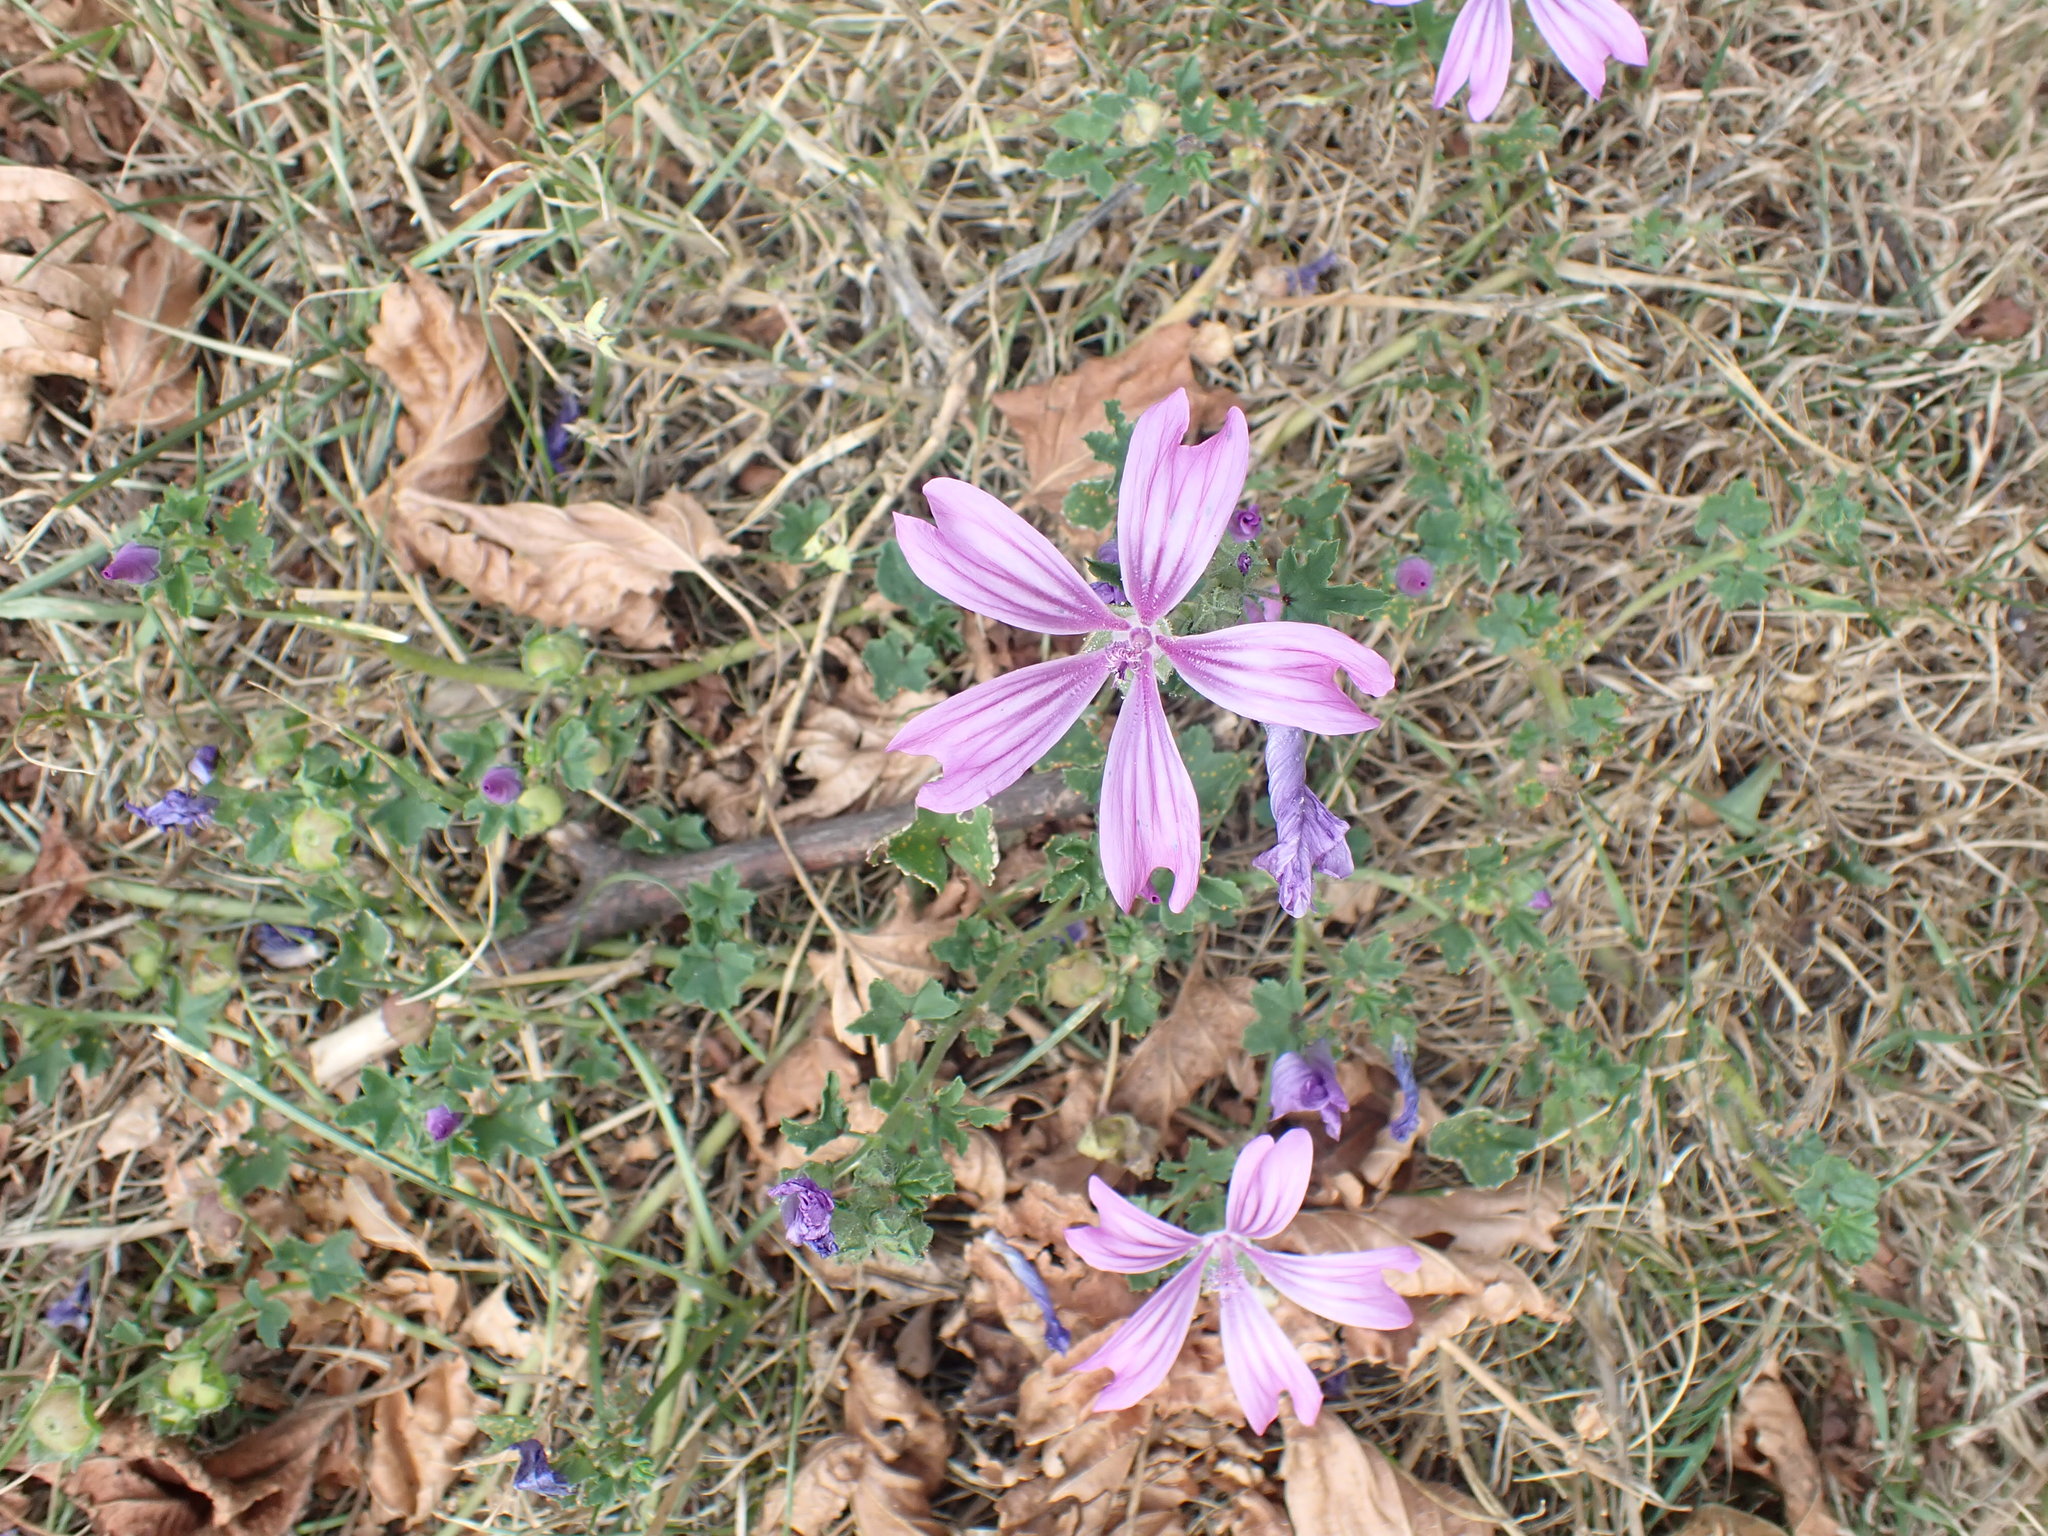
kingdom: Plantae
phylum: Tracheophyta
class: Magnoliopsida
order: Malvales
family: Malvaceae
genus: Malva
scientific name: Malva sylvestris
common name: Common mallow
